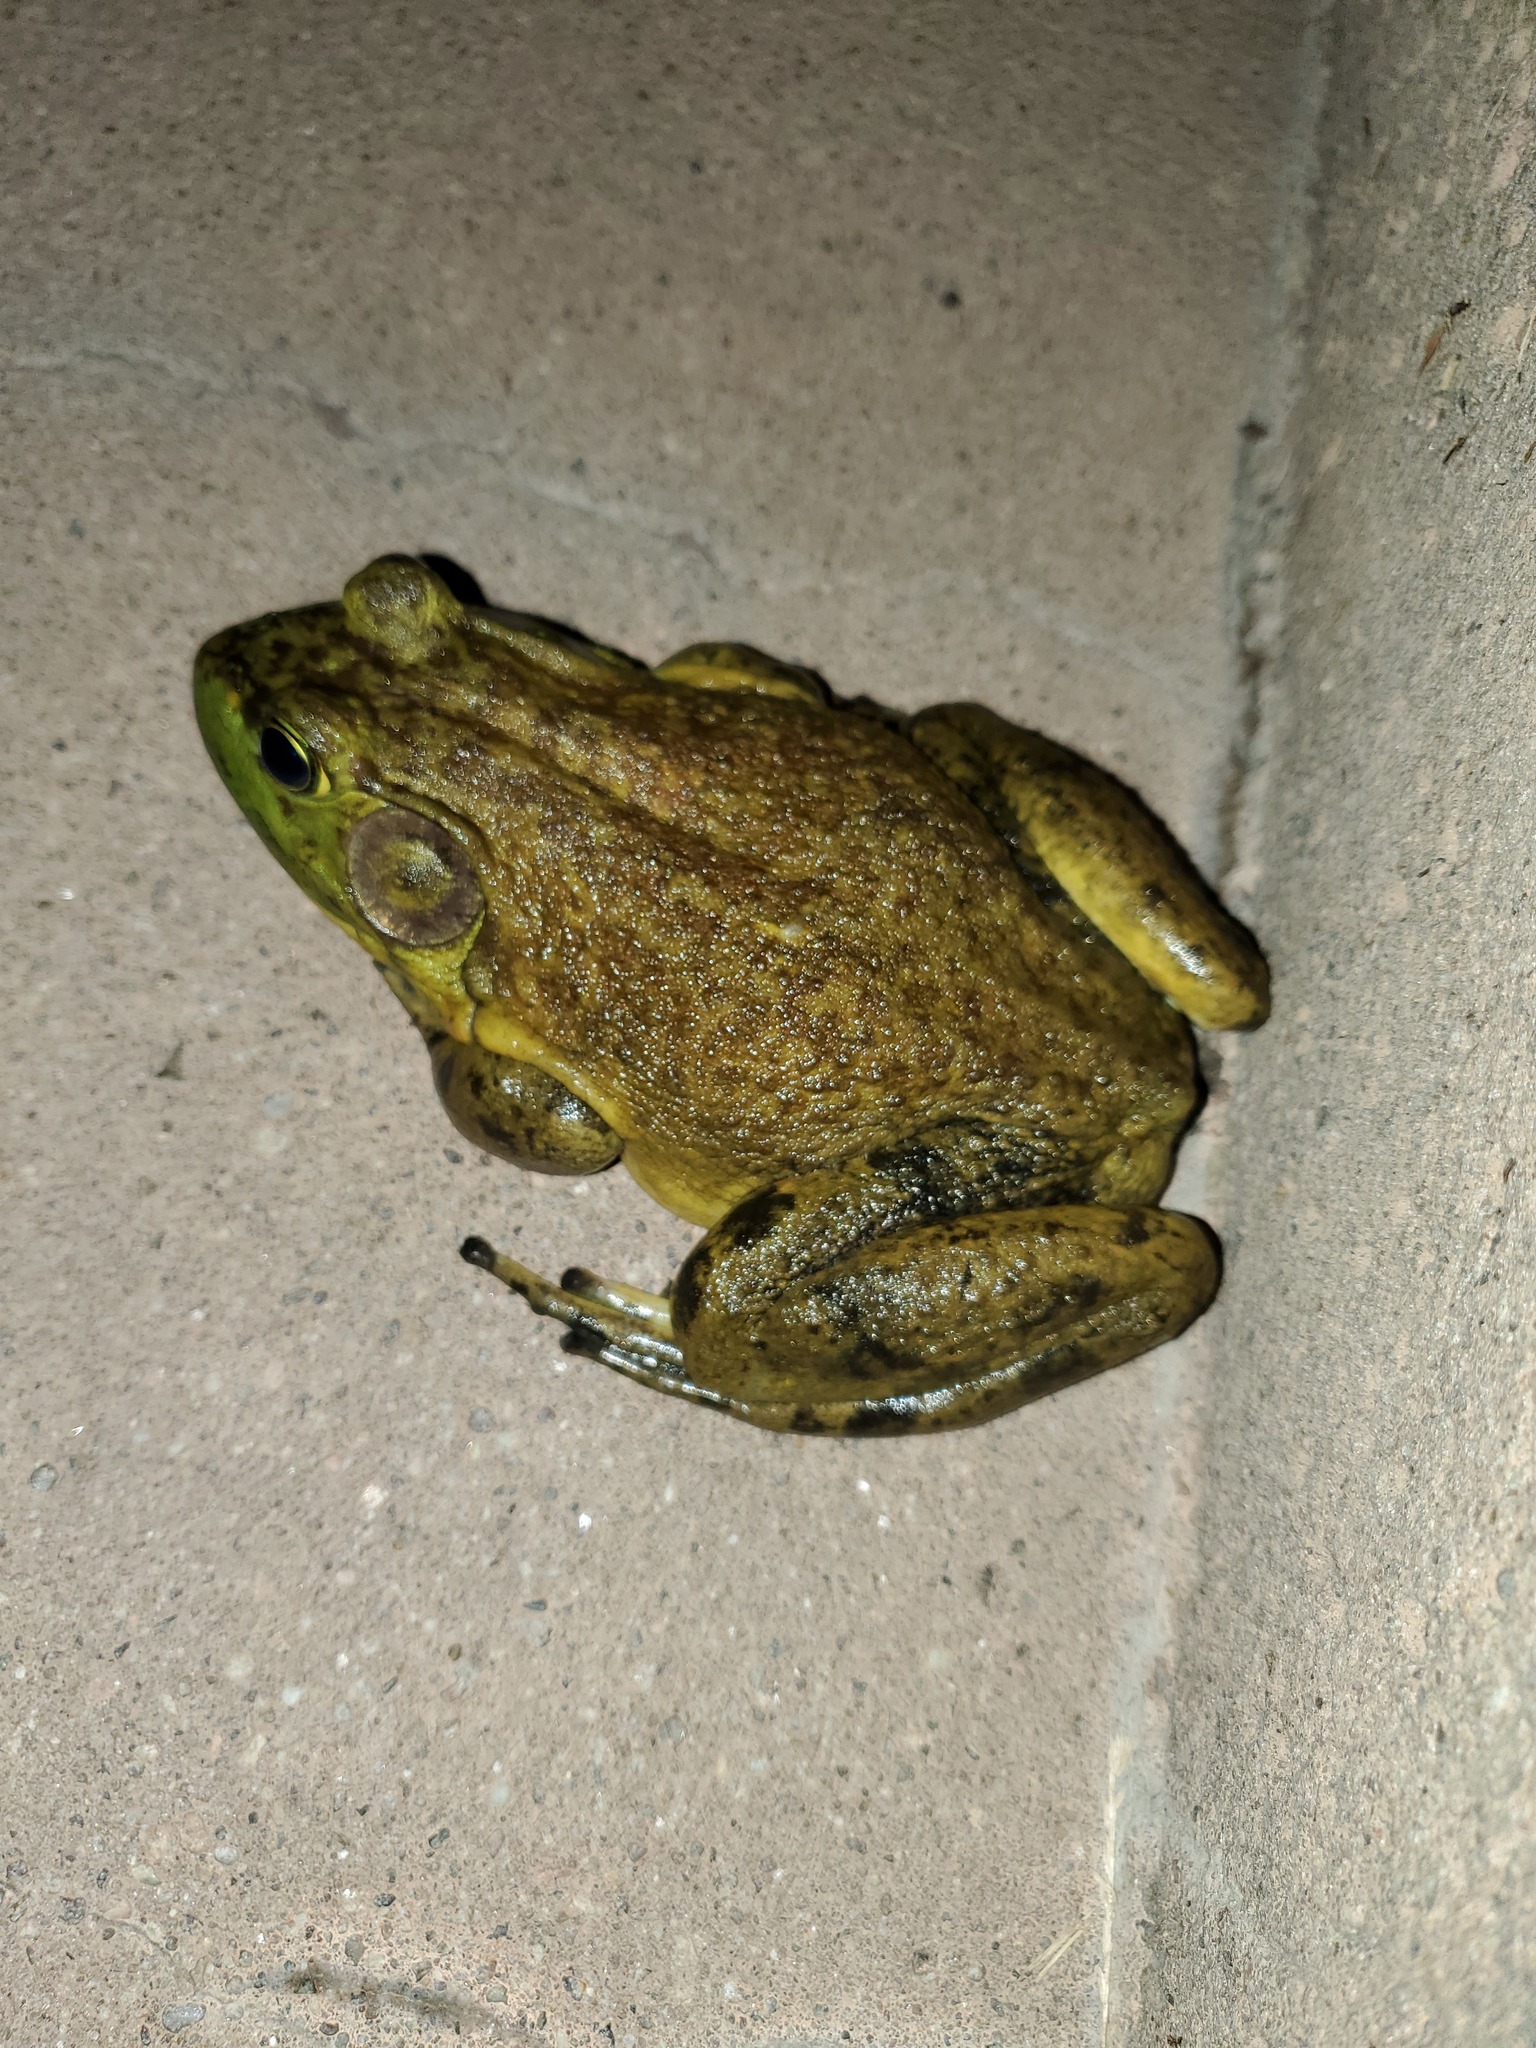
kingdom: Animalia
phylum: Chordata
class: Amphibia
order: Anura
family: Ranidae
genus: Lithobates
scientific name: Lithobates catesbeianus
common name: American bullfrog
